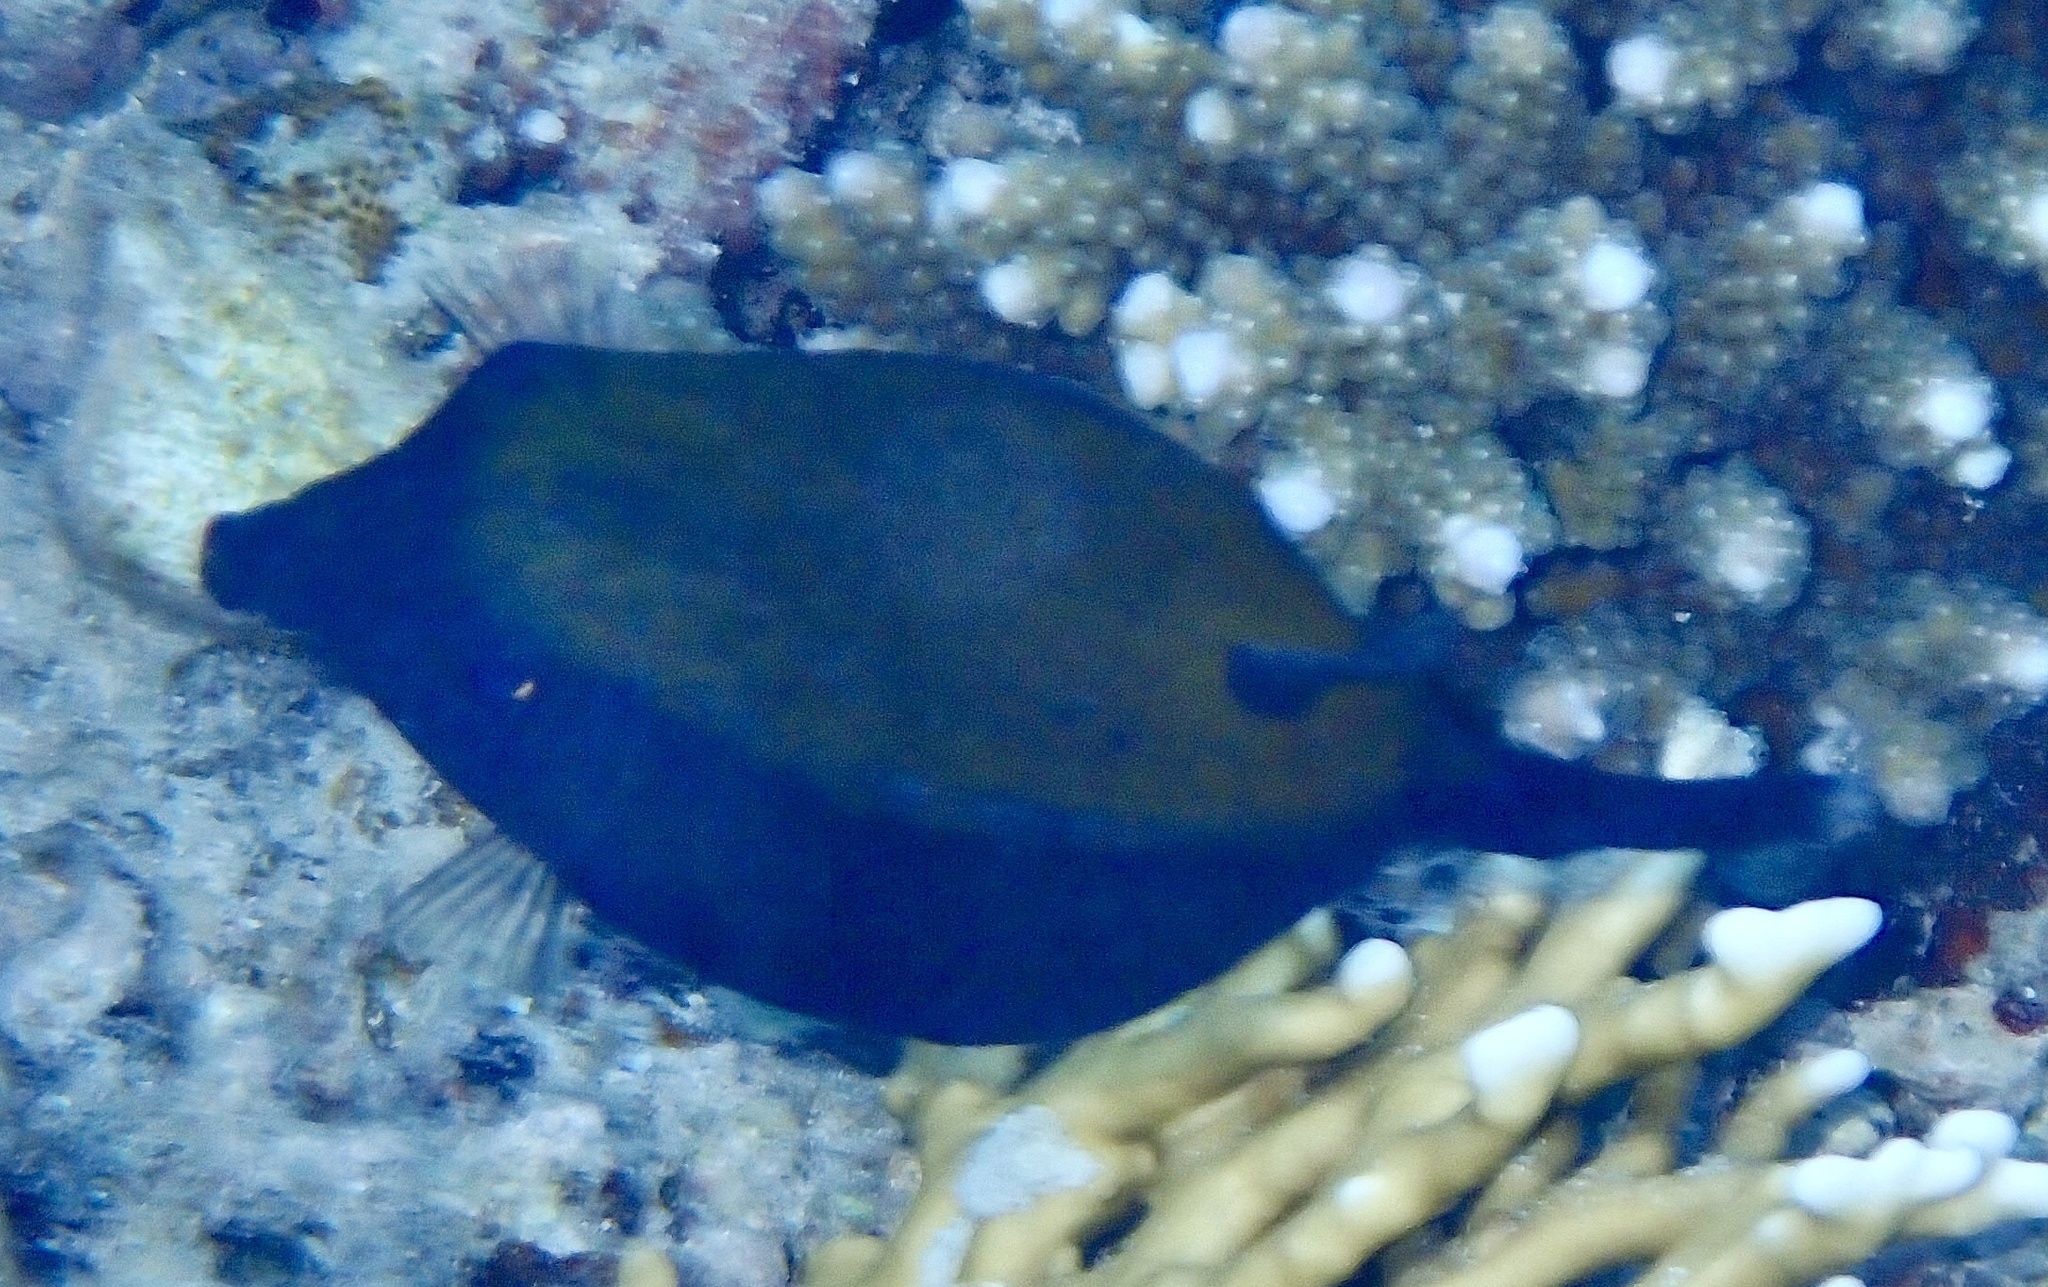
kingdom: Animalia
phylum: Chordata
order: Tetraodontiformes
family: Ostraciidae
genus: Ostracion
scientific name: Ostracion cyanurus
